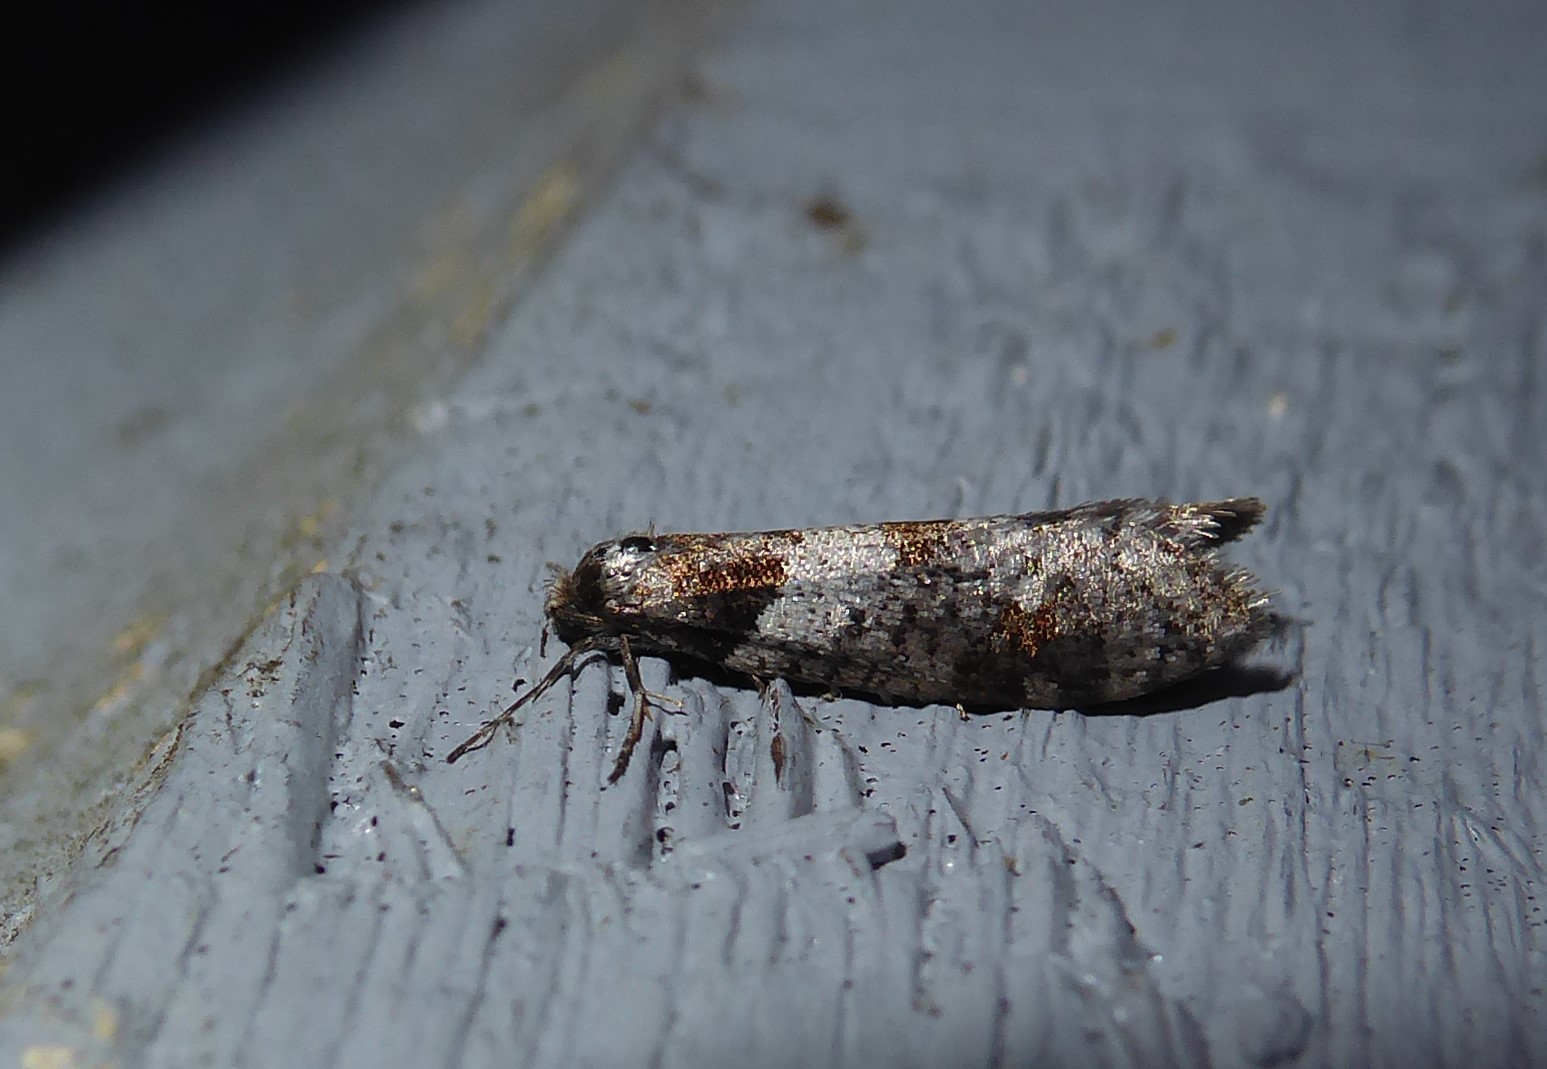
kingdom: Animalia
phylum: Arthropoda
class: Insecta
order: Lepidoptera
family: Psychidae
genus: Lepidoscia
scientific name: Lepidoscia heliochares
